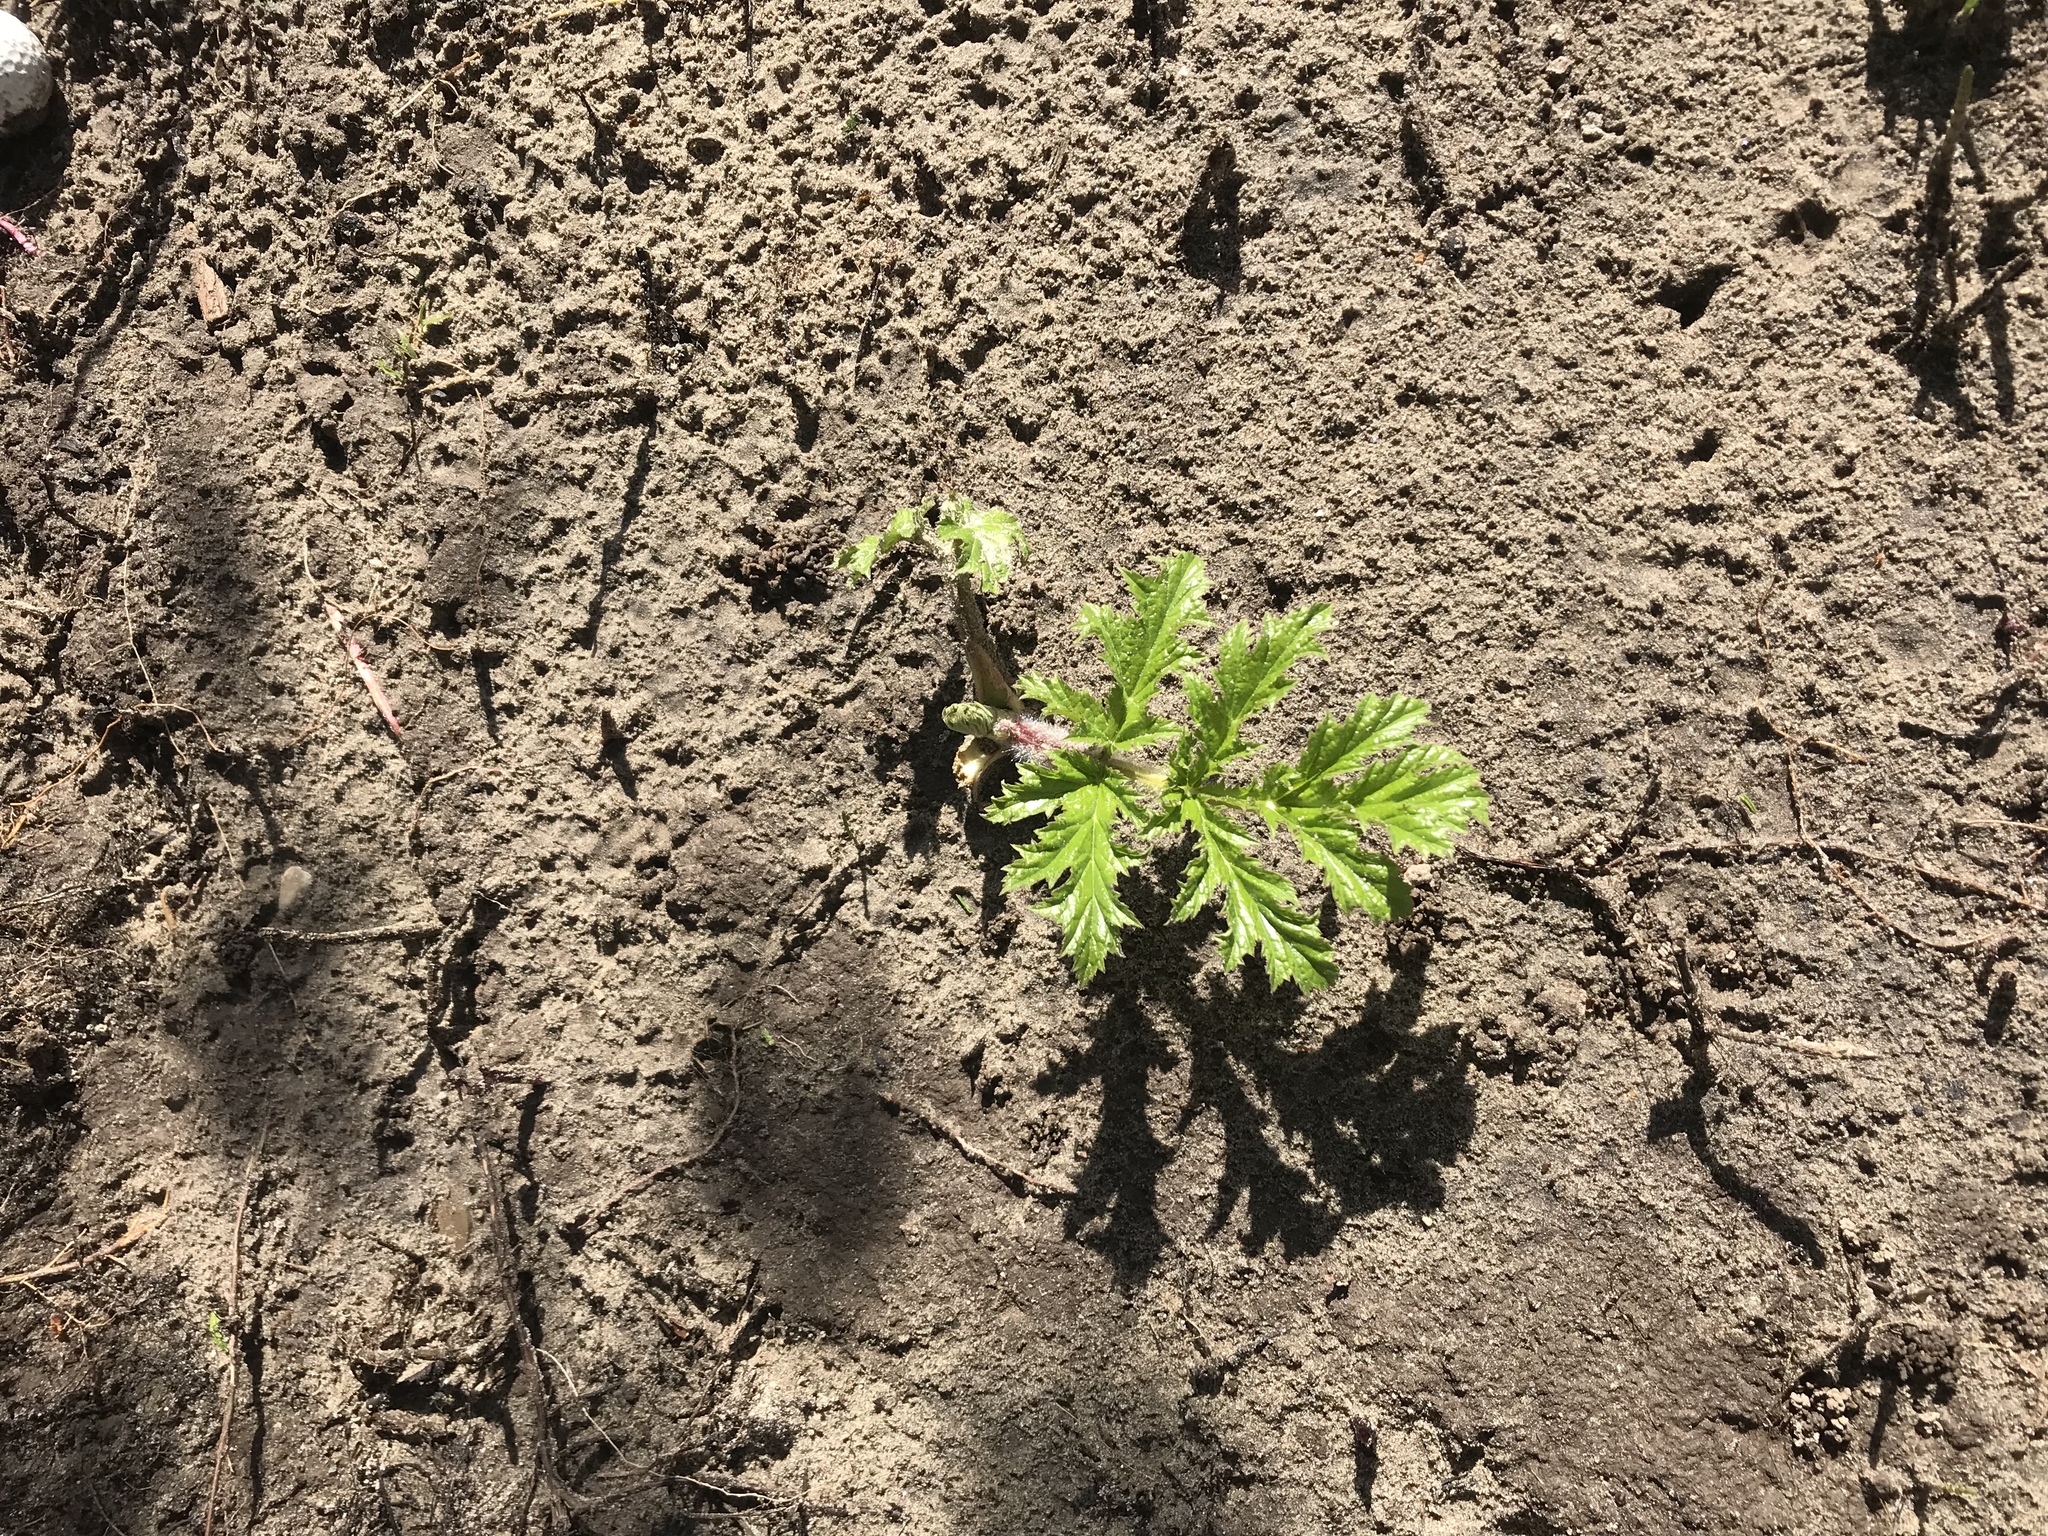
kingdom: Plantae
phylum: Tracheophyta
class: Magnoliopsida
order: Apiales
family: Apiaceae
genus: Heracleum
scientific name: Heracleum mantegazzianum
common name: Giant hogweed
